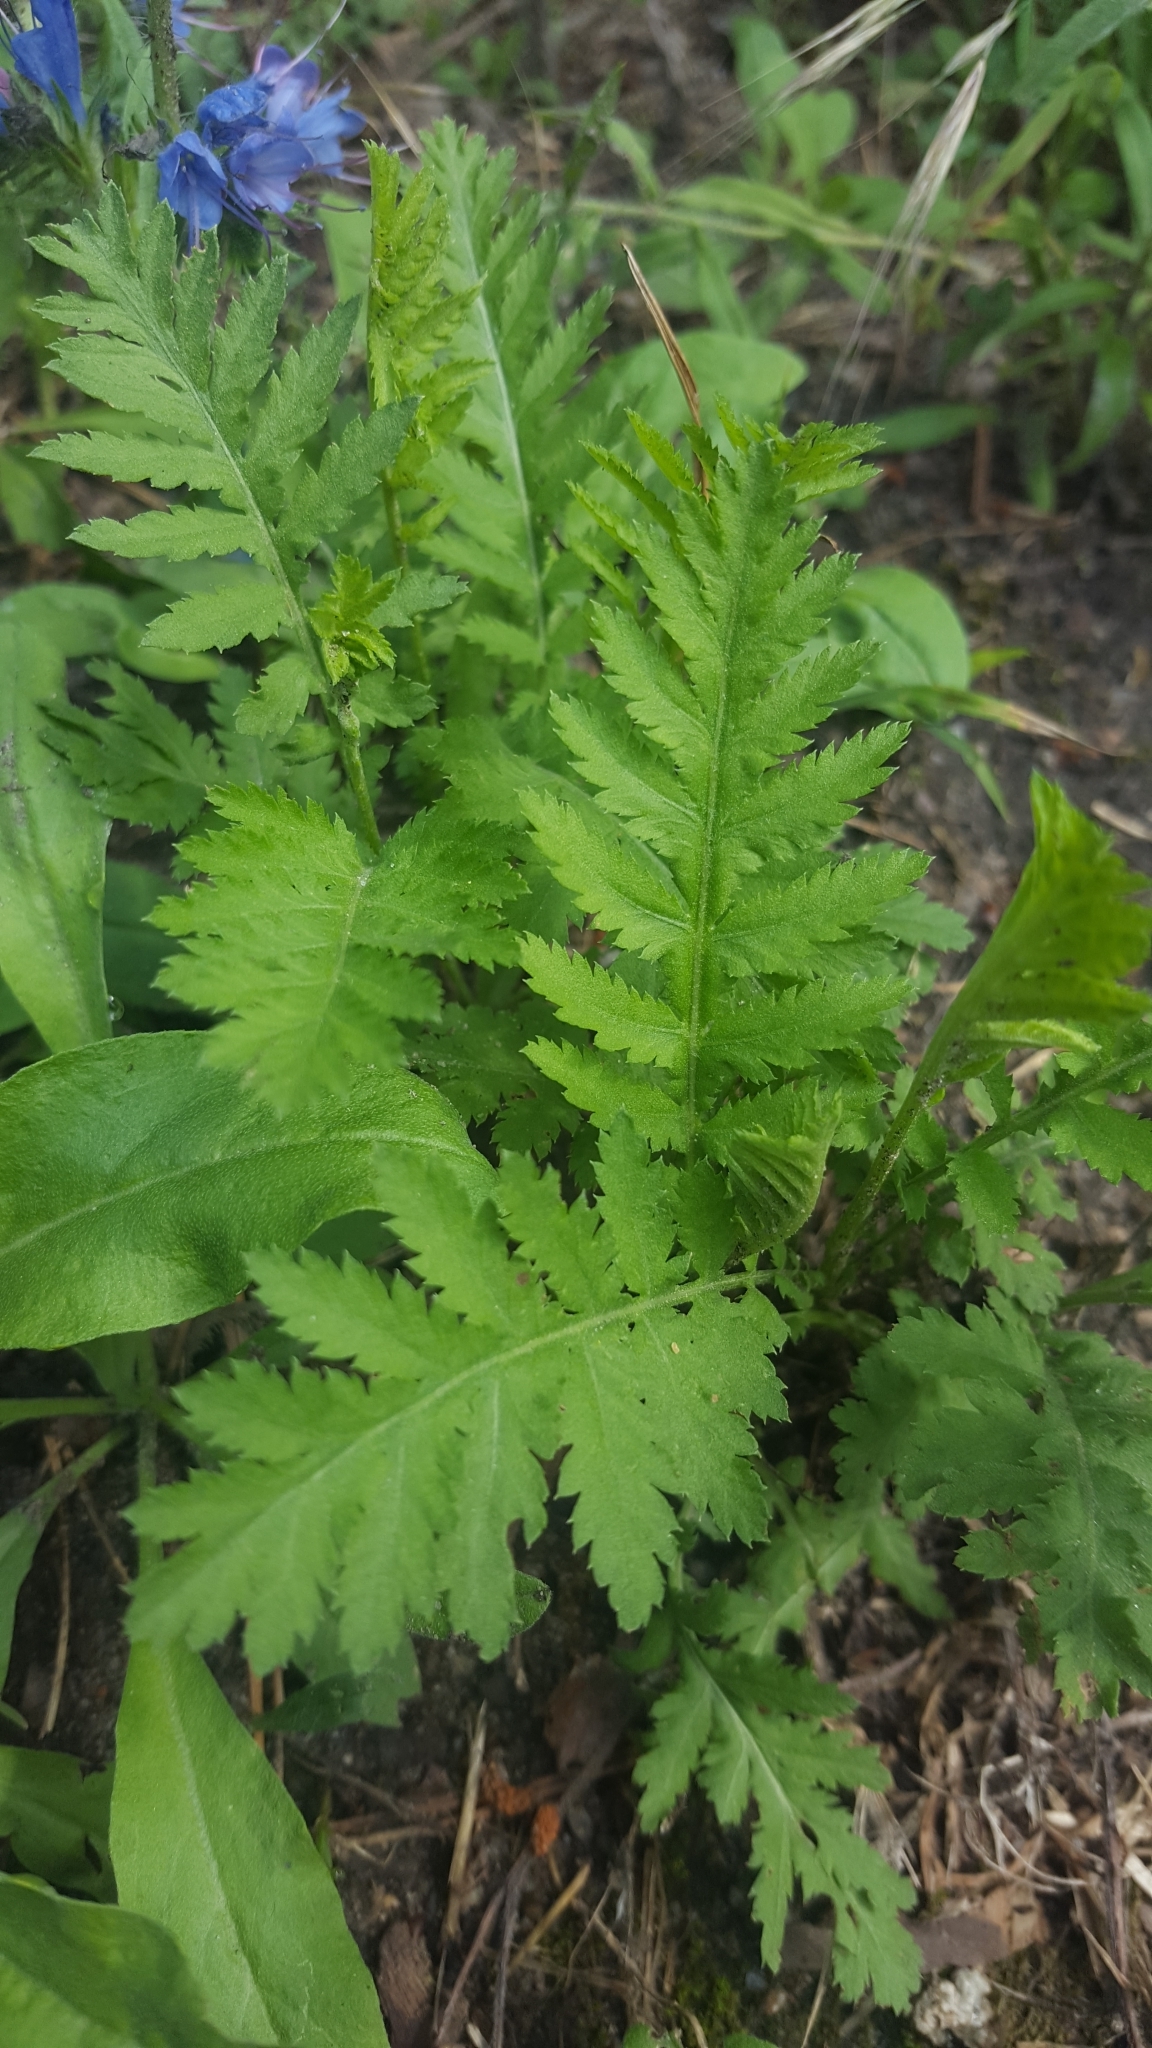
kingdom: Plantae
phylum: Tracheophyta
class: Magnoliopsida
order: Asterales
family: Asteraceae
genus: Tanacetum
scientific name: Tanacetum vulgare
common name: Common tansy
